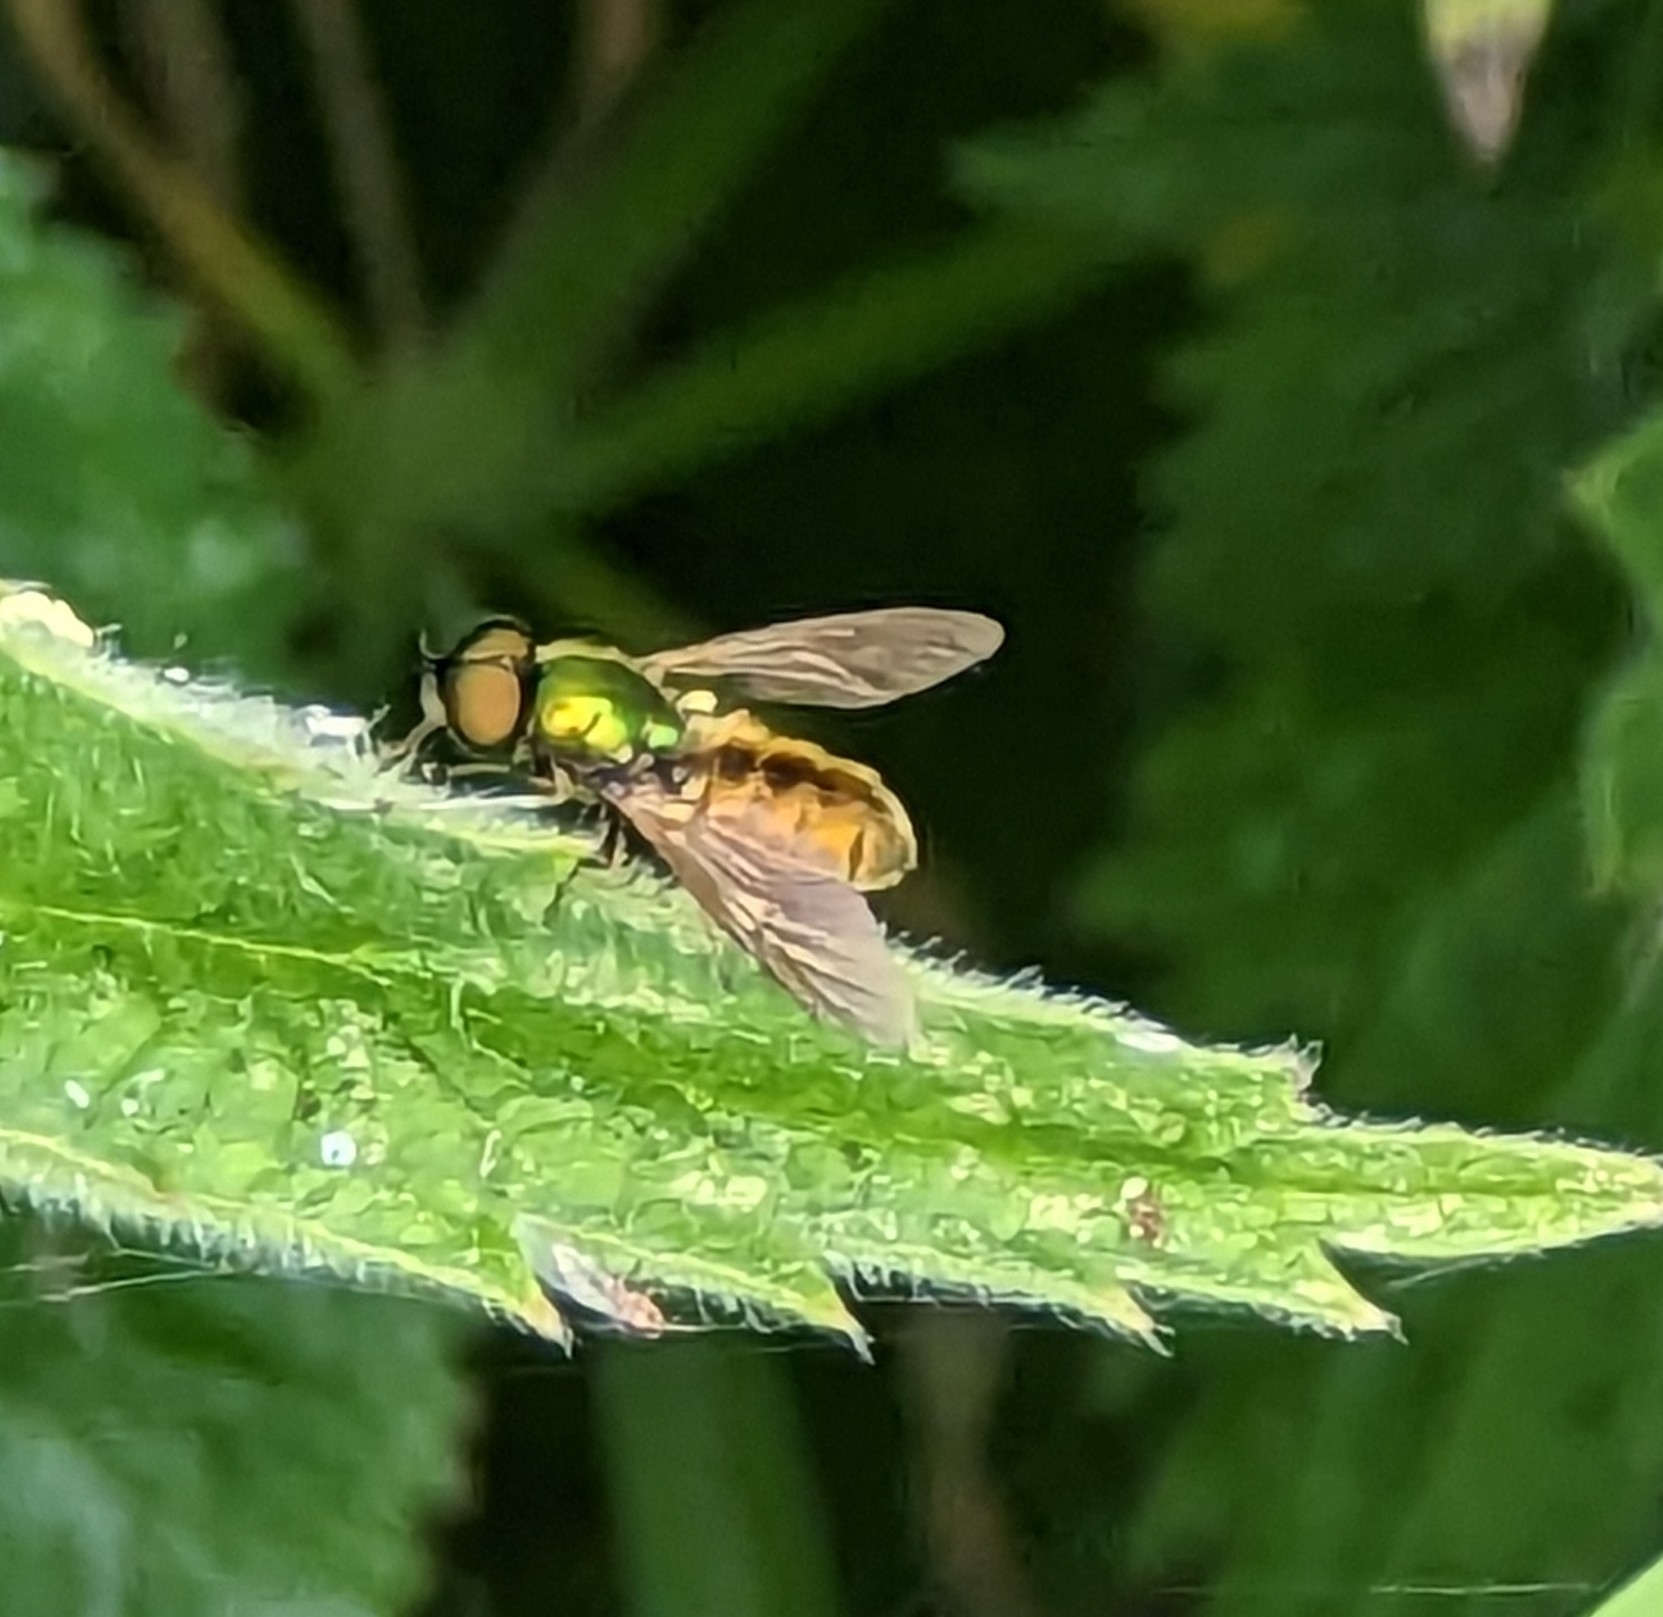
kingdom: Animalia
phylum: Arthropoda
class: Insecta
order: Diptera
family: Stratiomyidae
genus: Chloromyia
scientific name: Chloromyia formosa
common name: Soldier fly
